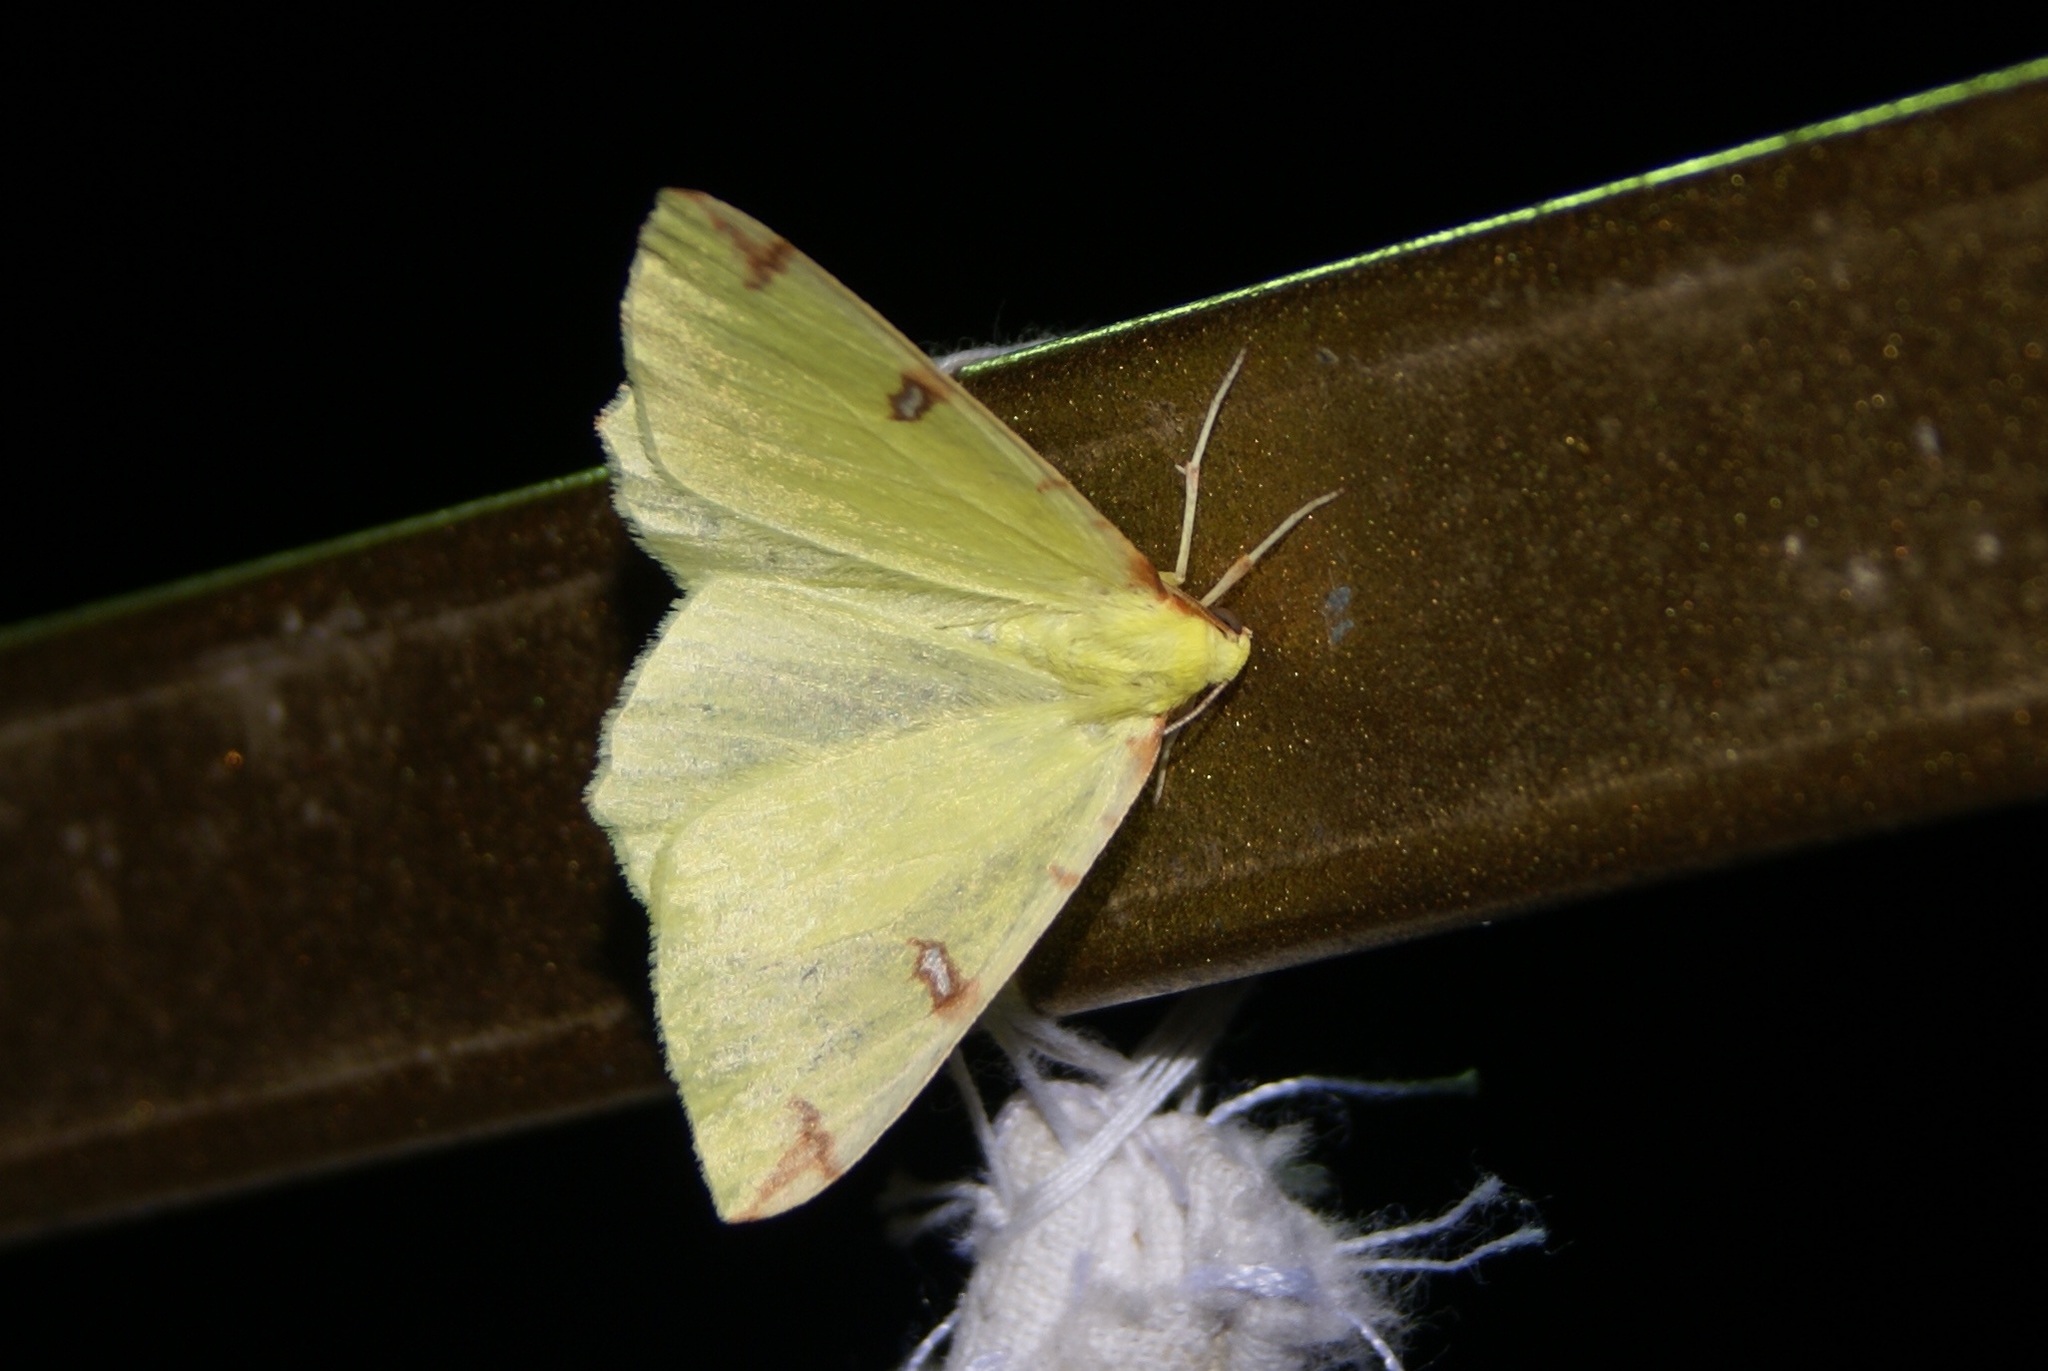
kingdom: Animalia
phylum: Arthropoda
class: Insecta
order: Lepidoptera
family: Geometridae
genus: Opisthograptis
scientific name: Opisthograptis luteolata
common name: Brimstone moth
